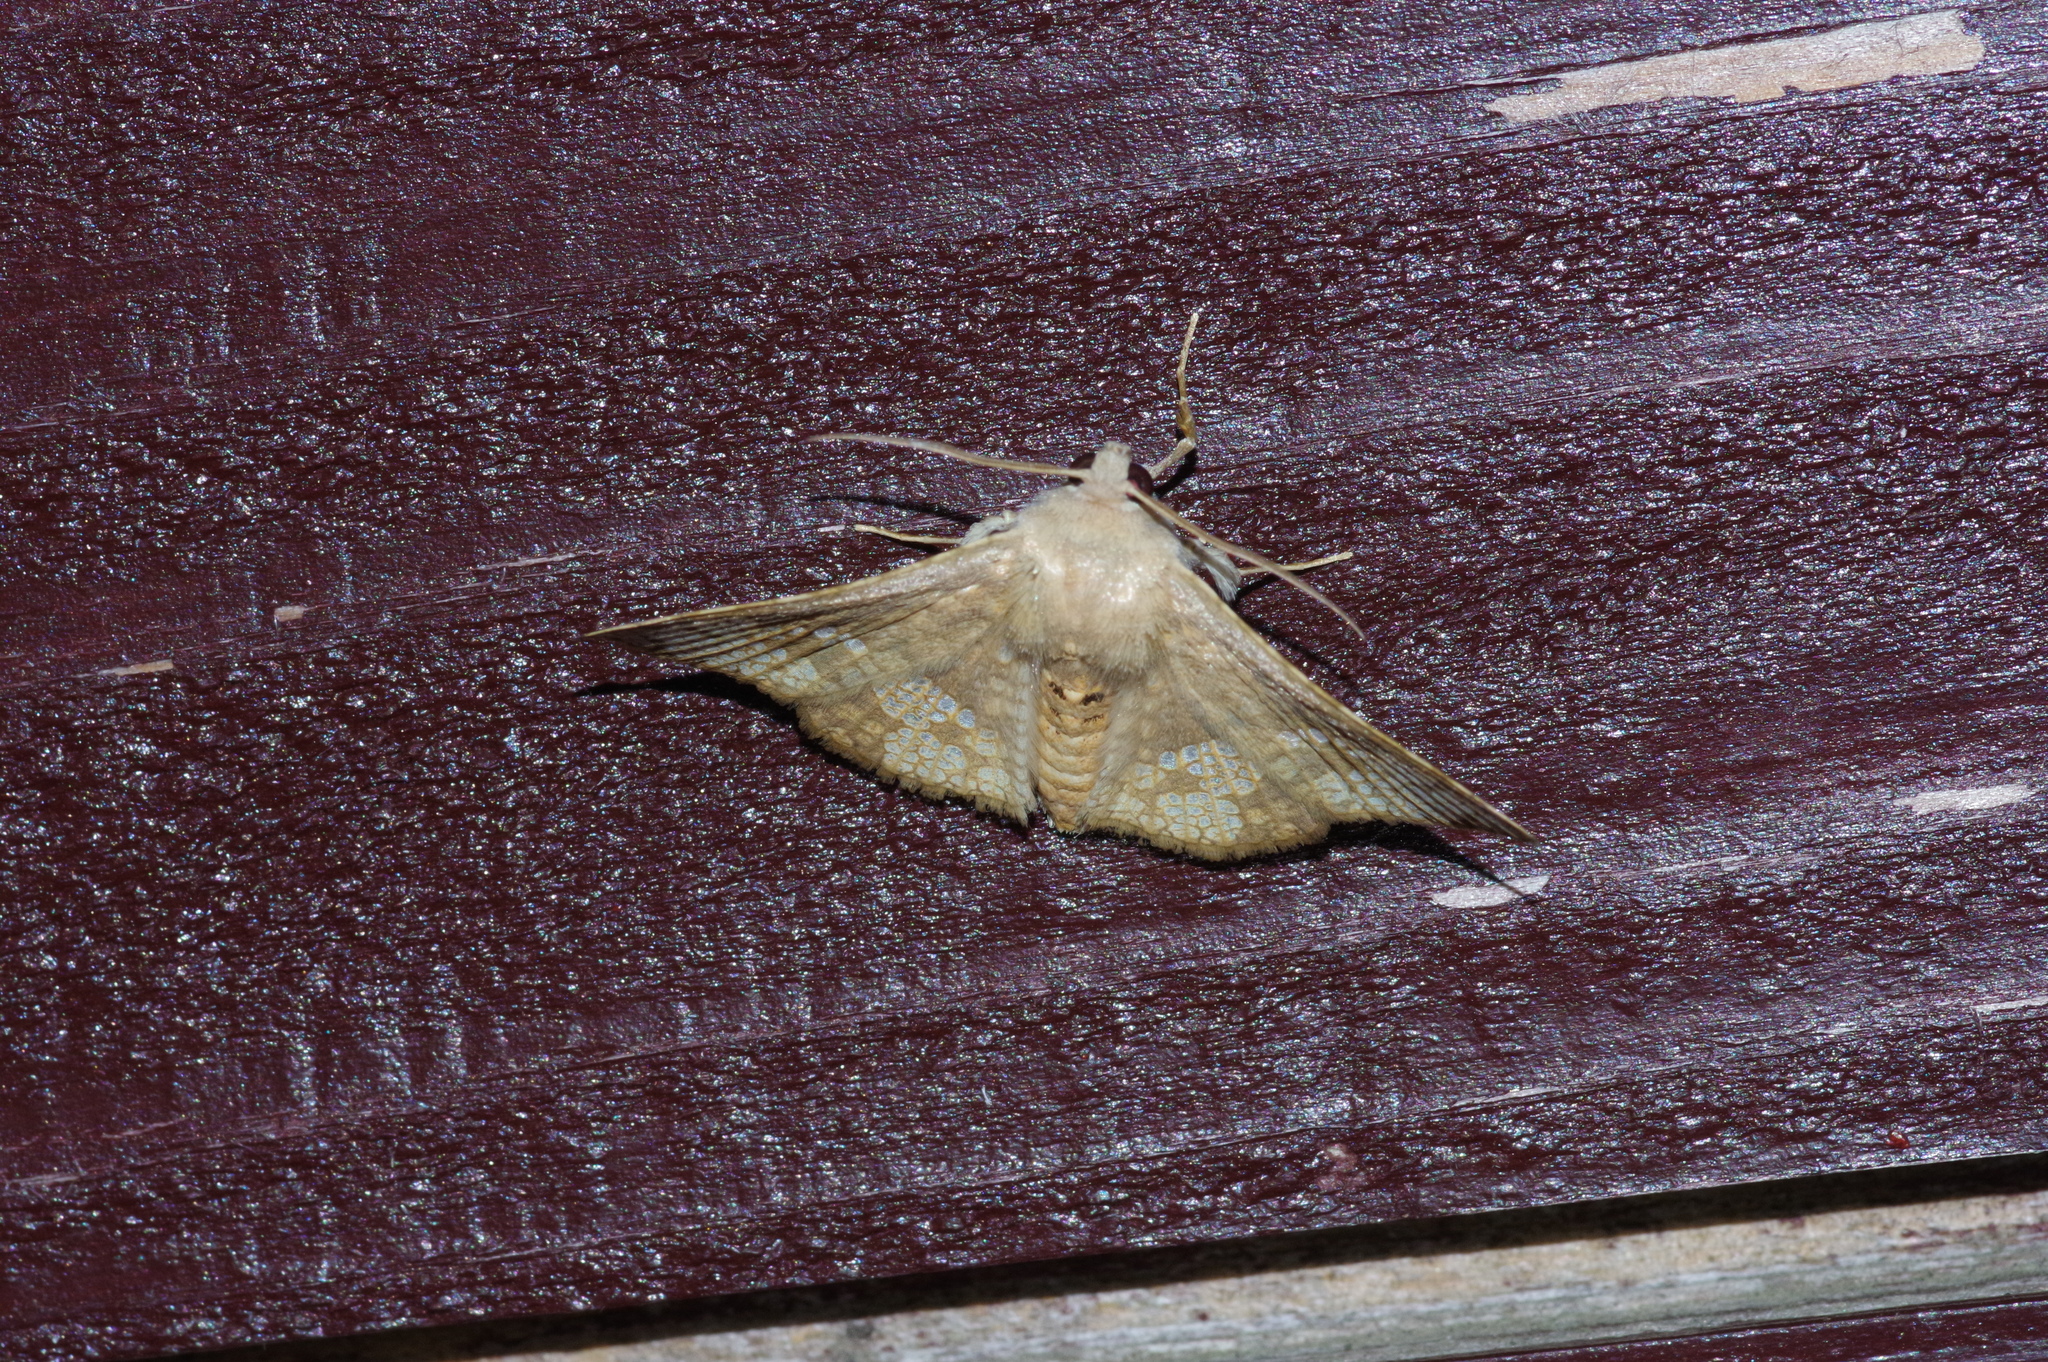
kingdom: Animalia
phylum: Arthropoda
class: Insecta
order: Lepidoptera
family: Thyrididae
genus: Canaea
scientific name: Canaea ryukyuensis
